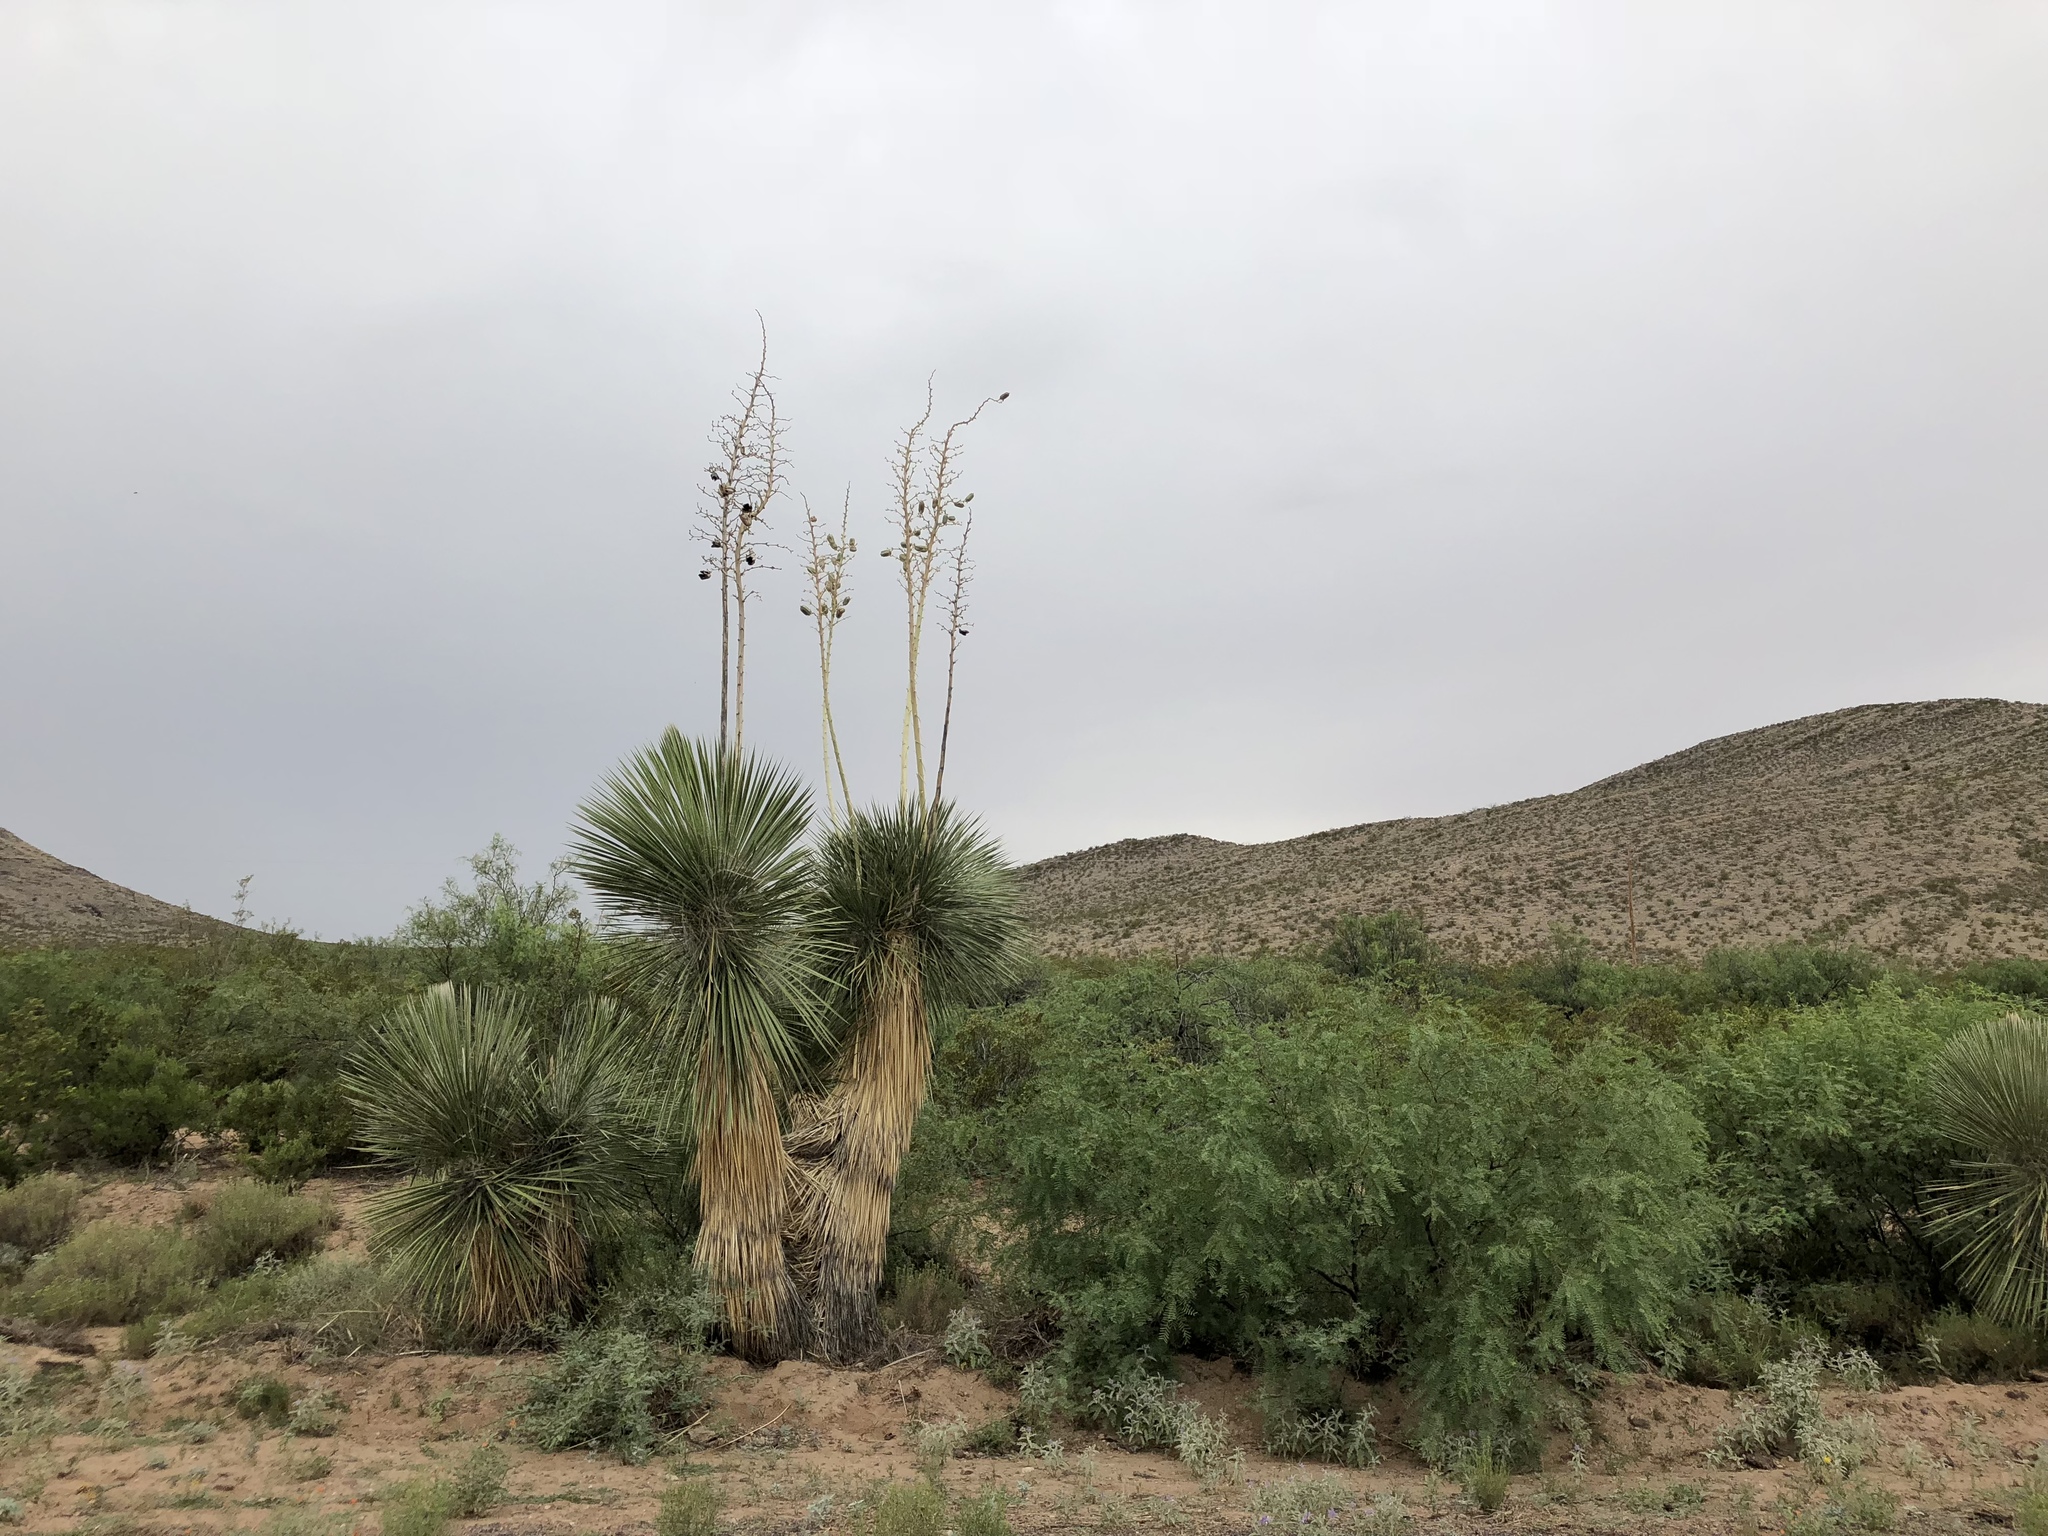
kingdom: Plantae
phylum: Tracheophyta
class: Liliopsida
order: Asparagales
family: Asparagaceae
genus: Yucca
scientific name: Yucca elata
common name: Palmella
